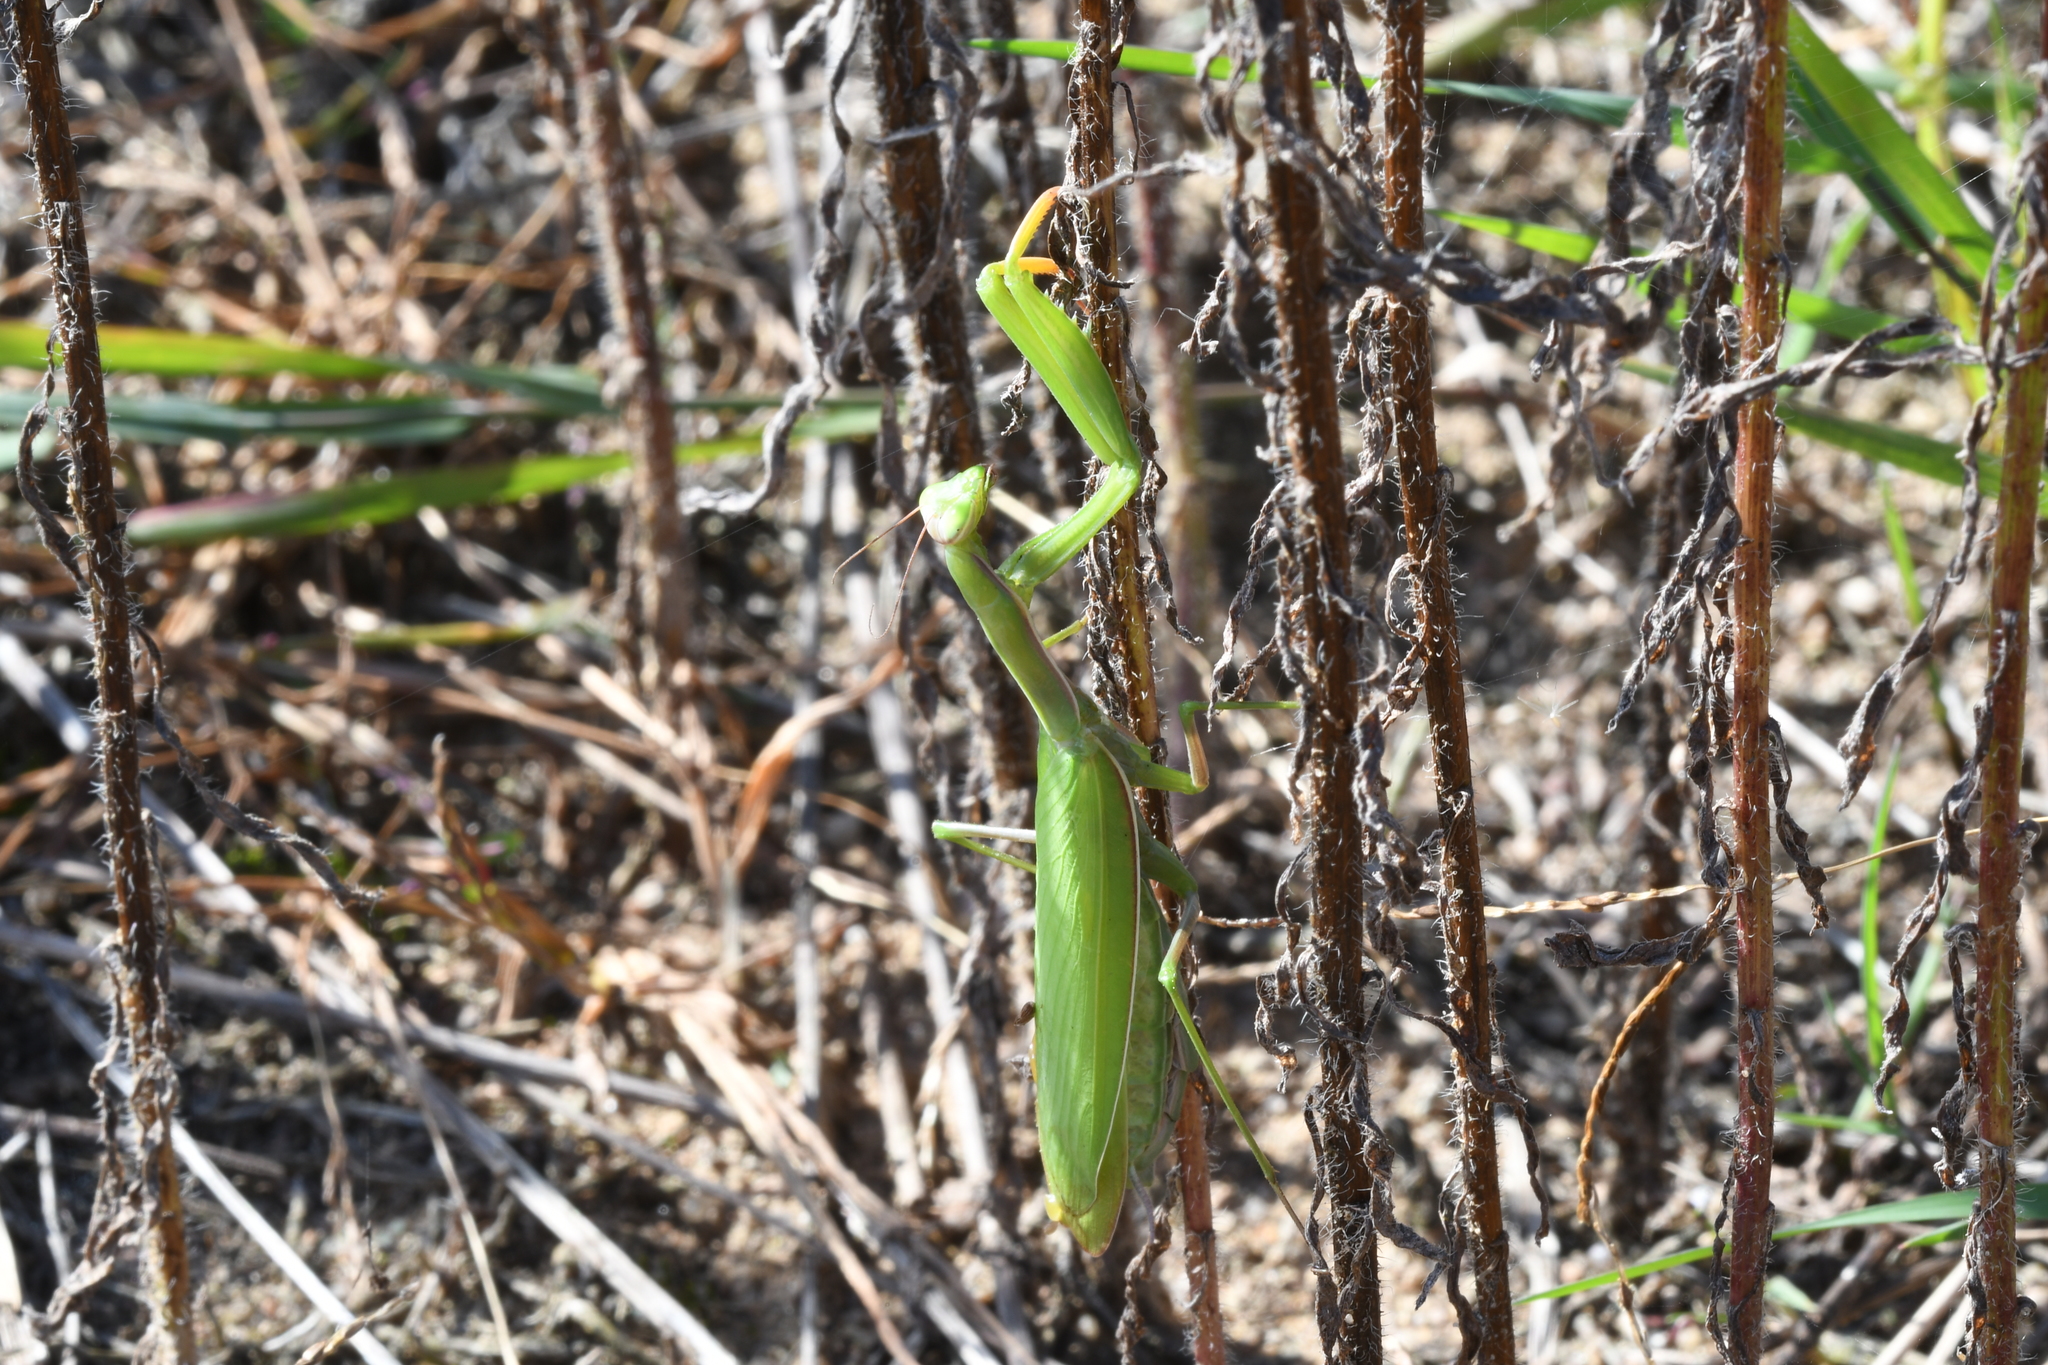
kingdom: Animalia
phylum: Arthropoda
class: Insecta
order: Mantodea
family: Mantidae
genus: Mantis
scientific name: Mantis religiosa
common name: Praying mantis
